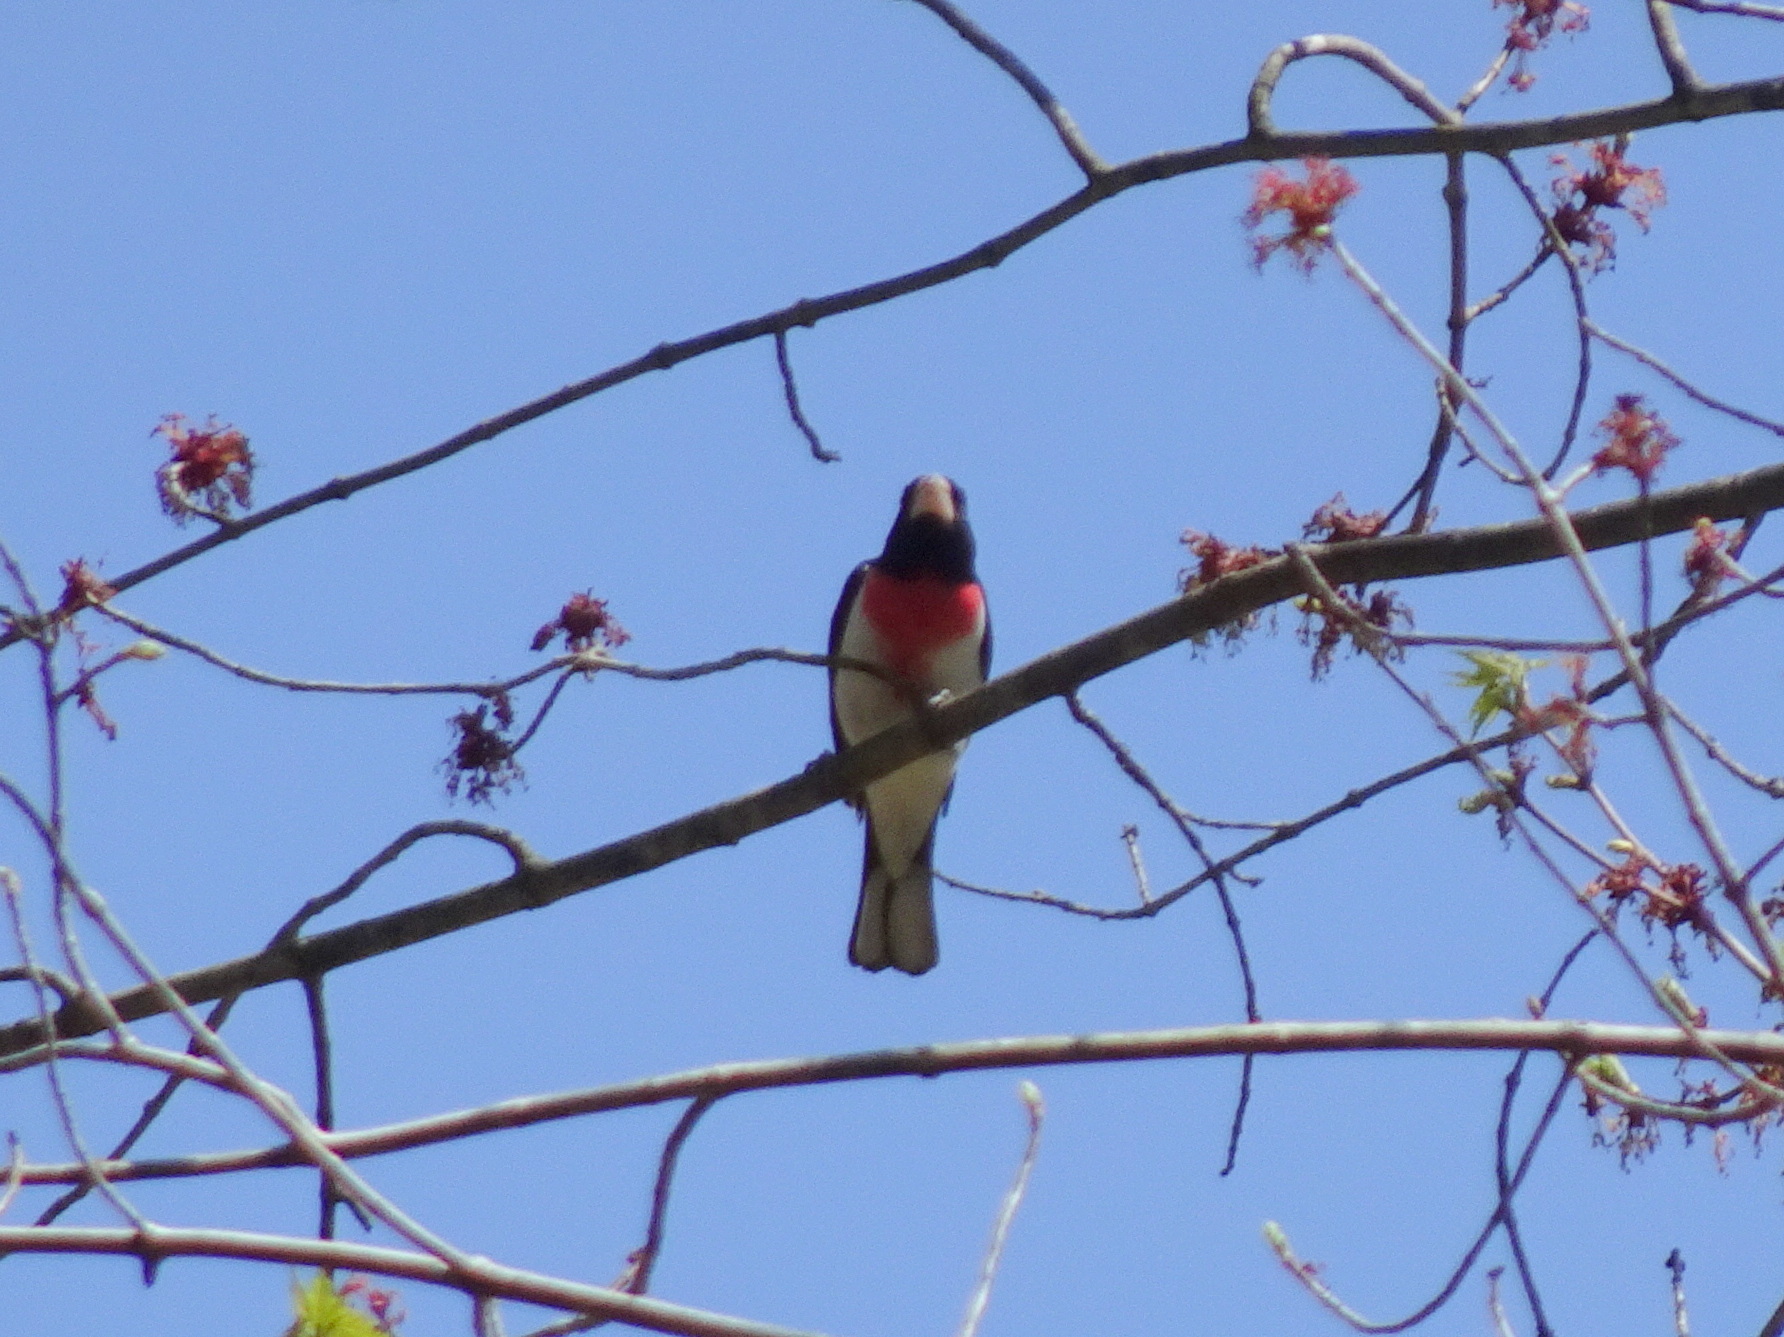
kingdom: Animalia
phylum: Chordata
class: Aves
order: Passeriformes
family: Cardinalidae
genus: Pheucticus
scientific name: Pheucticus ludovicianus
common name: Rose-breasted grosbeak
